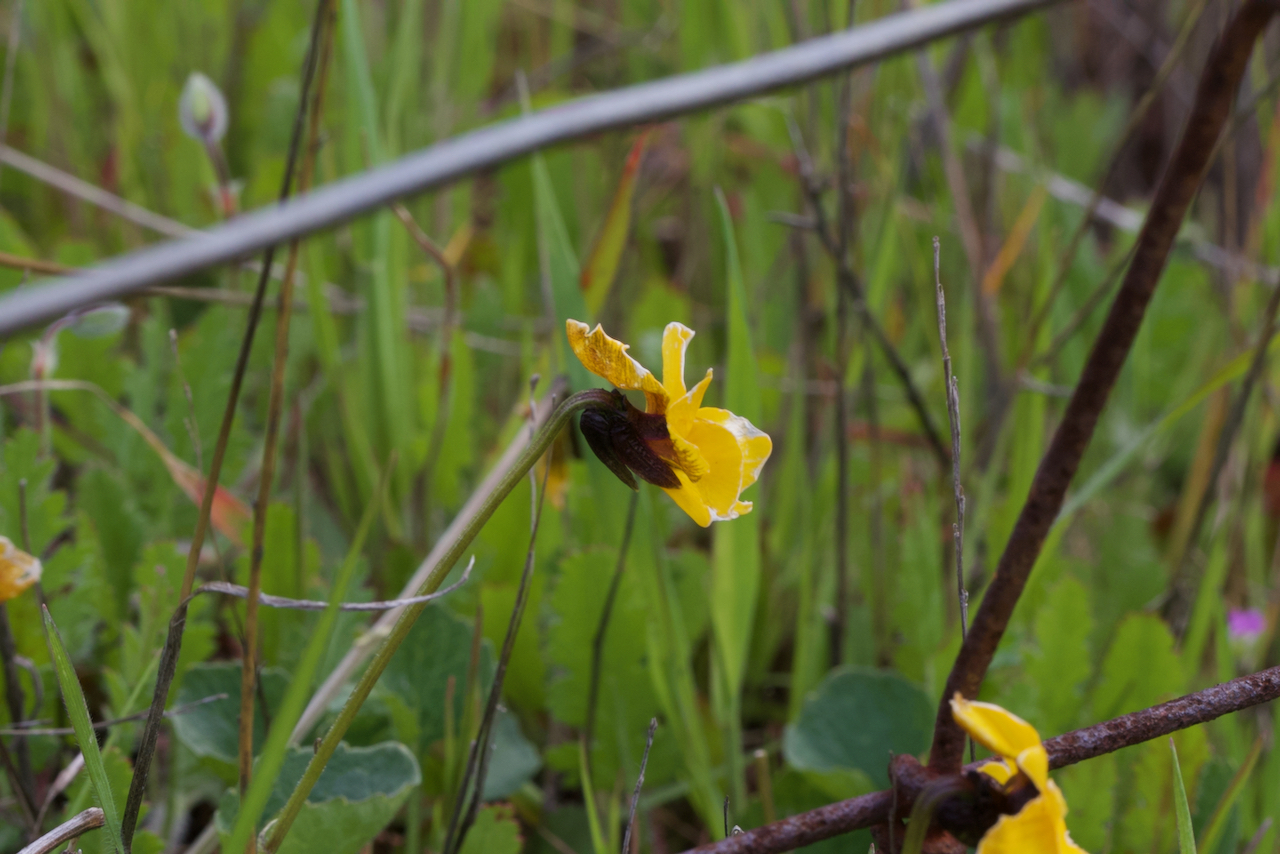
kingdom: Plantae
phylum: Tracheophyta
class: Magnoliopsida
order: Malpighiales
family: Violaceae
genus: Viola
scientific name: Viola pedunculata
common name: California golden violet
